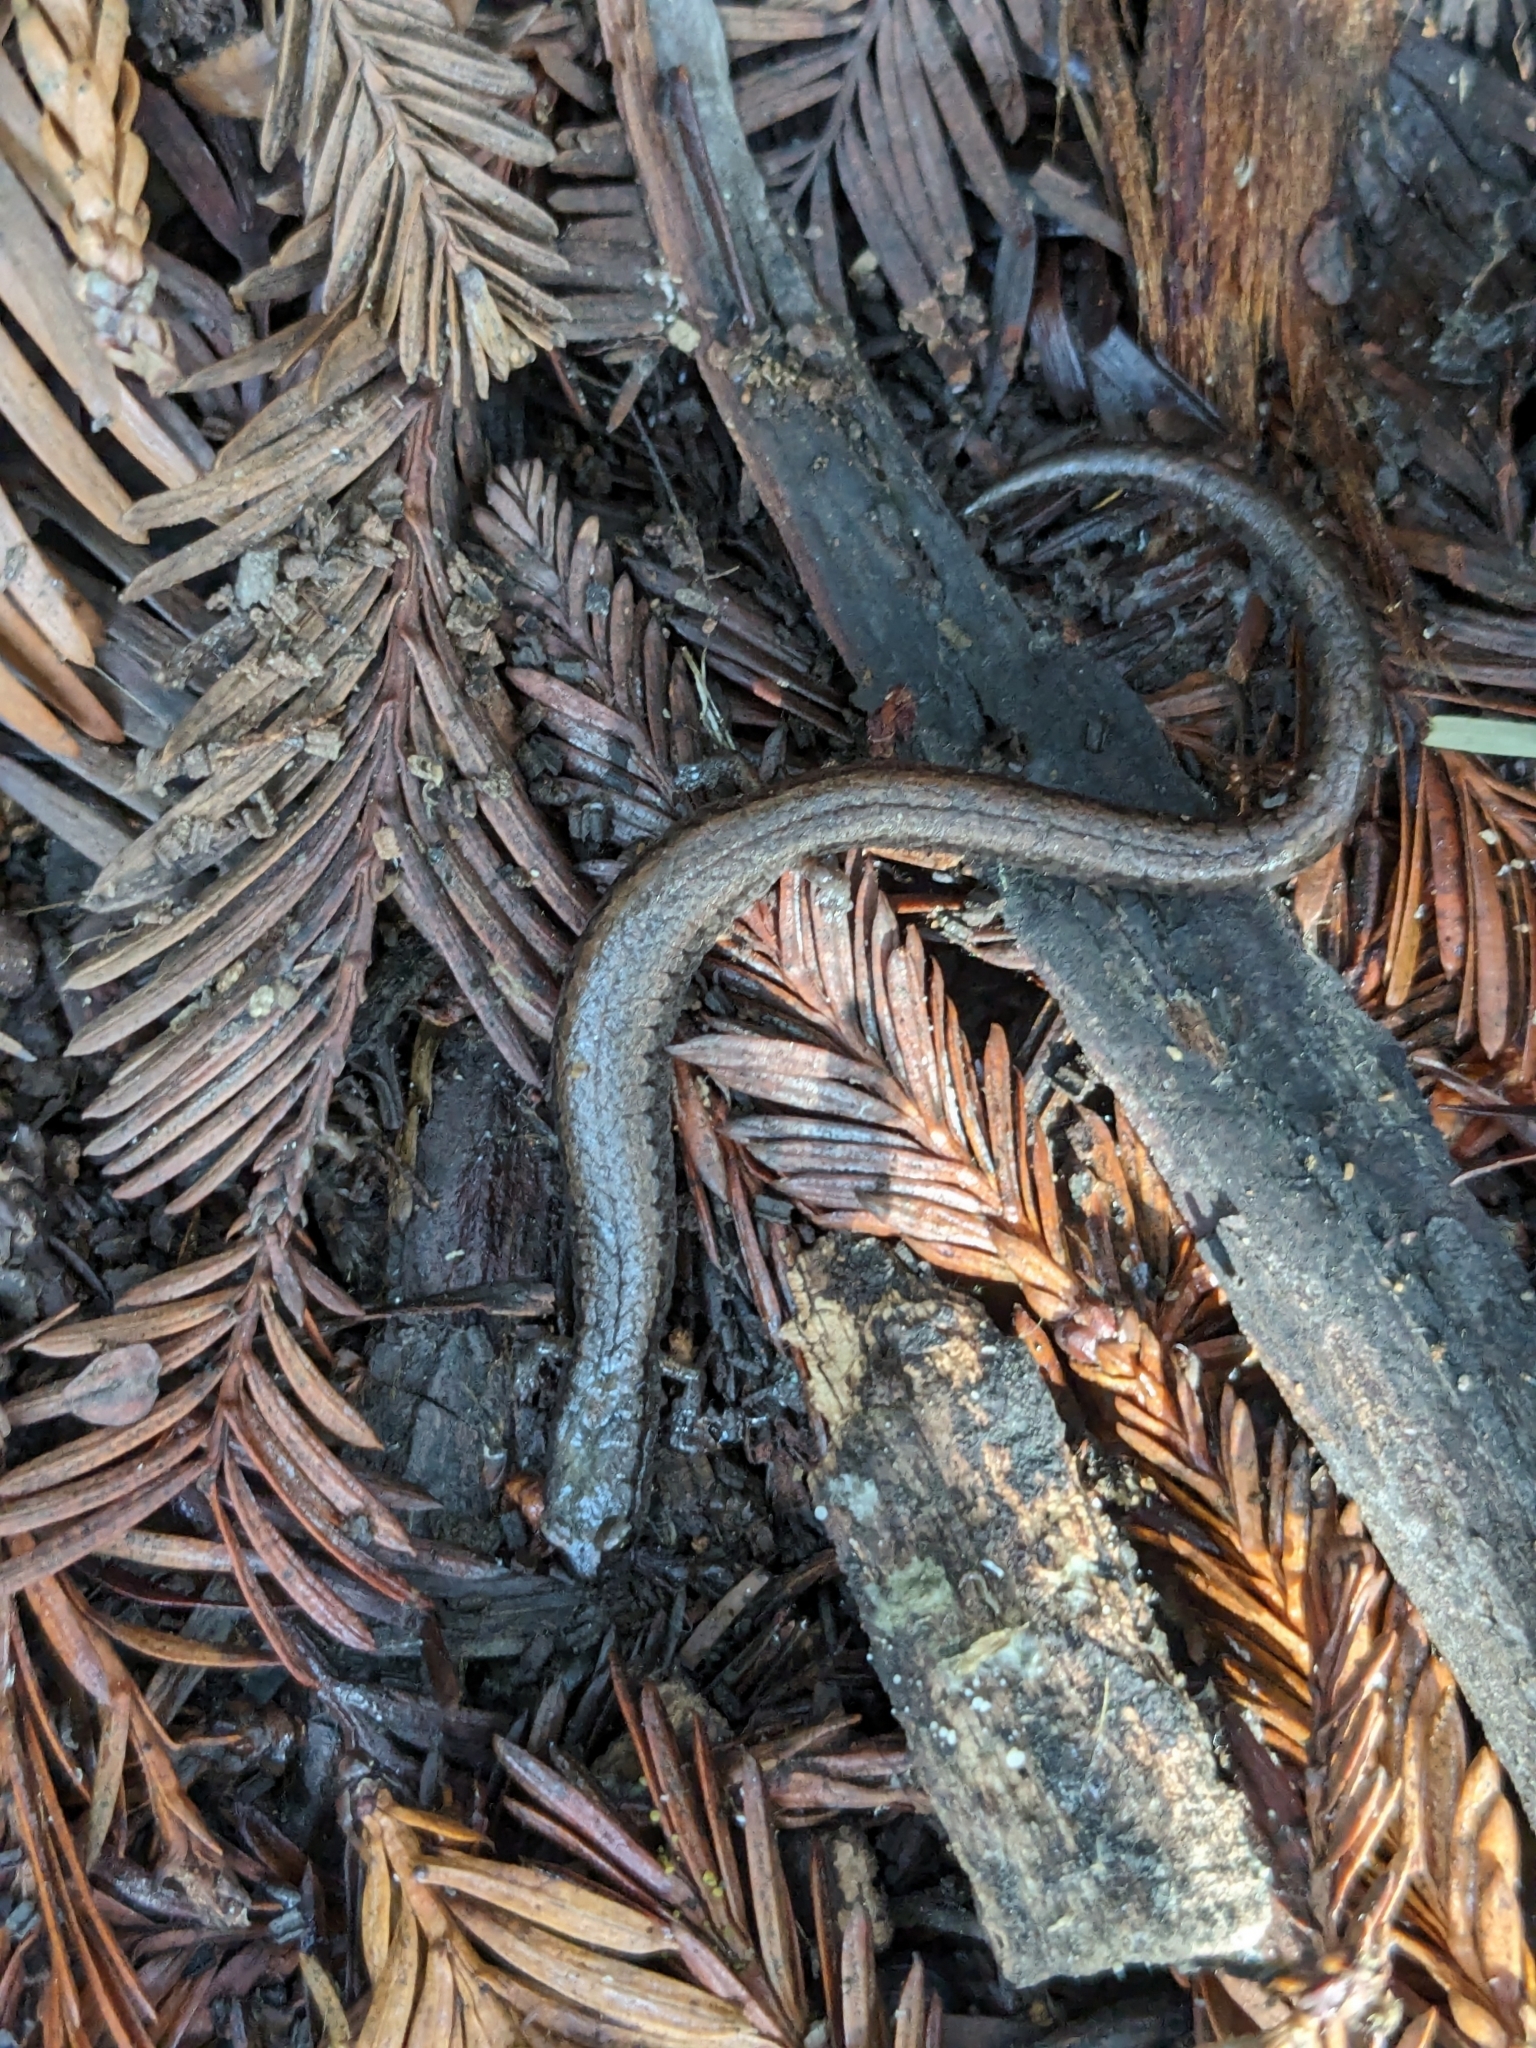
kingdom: Animalia
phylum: Chordata
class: Amphibia
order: Caudata
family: Plethodontidae
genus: Batrachoseps
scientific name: Batrachoseps attenuatus
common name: California slender salamander
